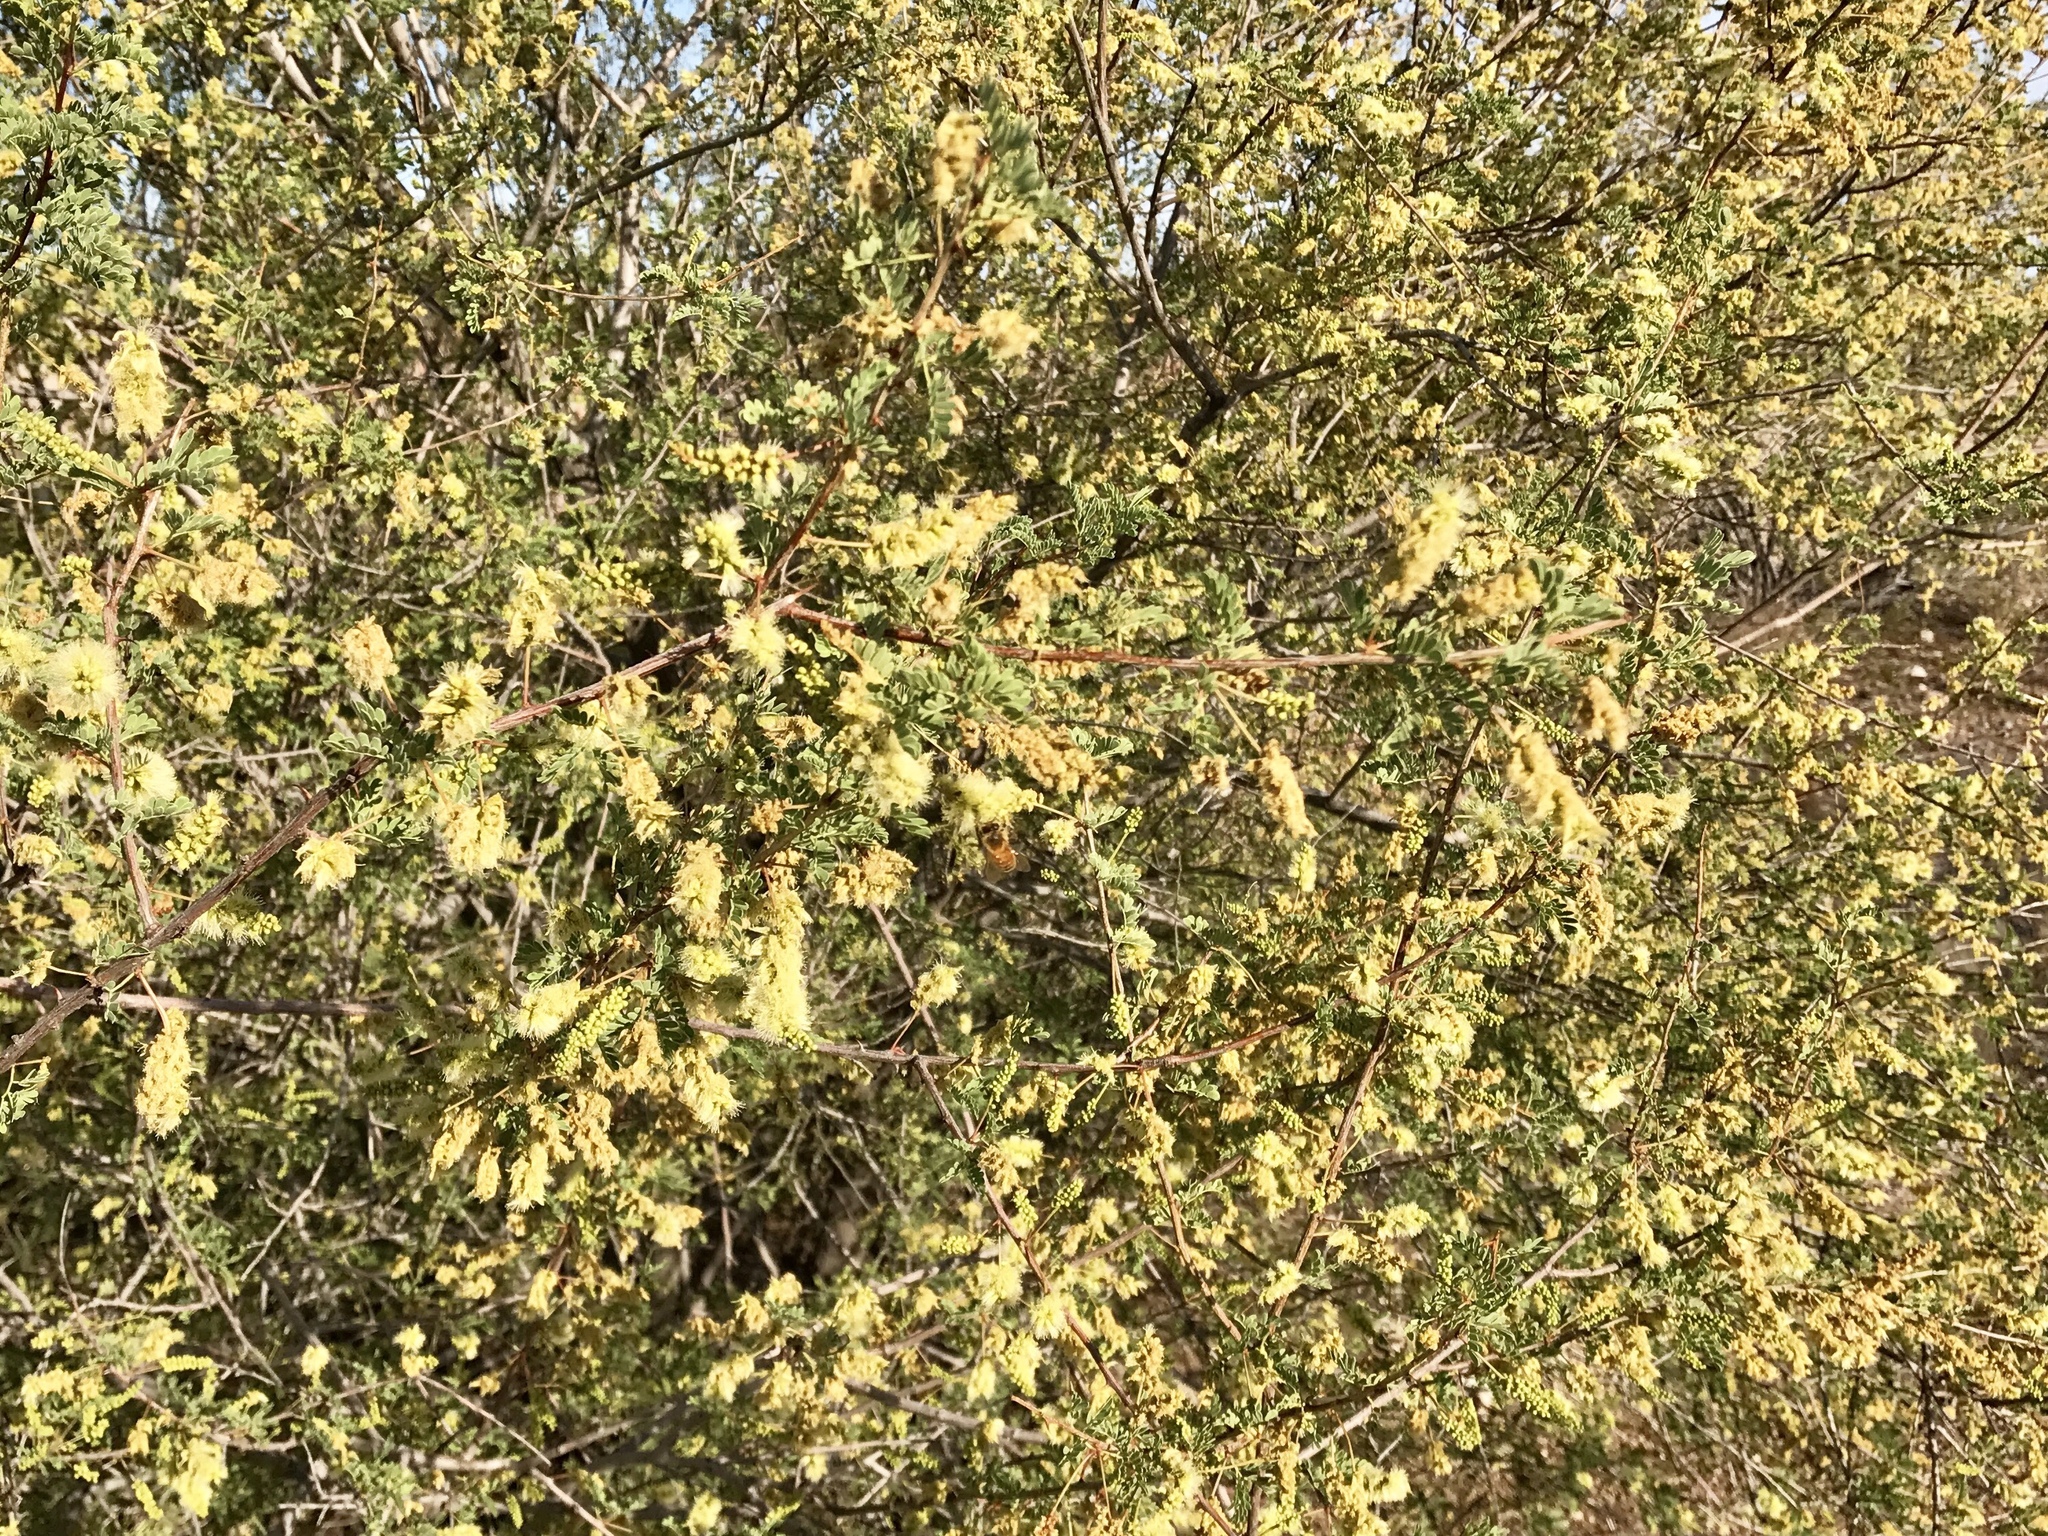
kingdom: Plantae
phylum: Tracheophyta
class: Magnoliopsida
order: Fabales
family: Fabaceae
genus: Senegalia
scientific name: Senegalia greggii
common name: Texas-mimosa
